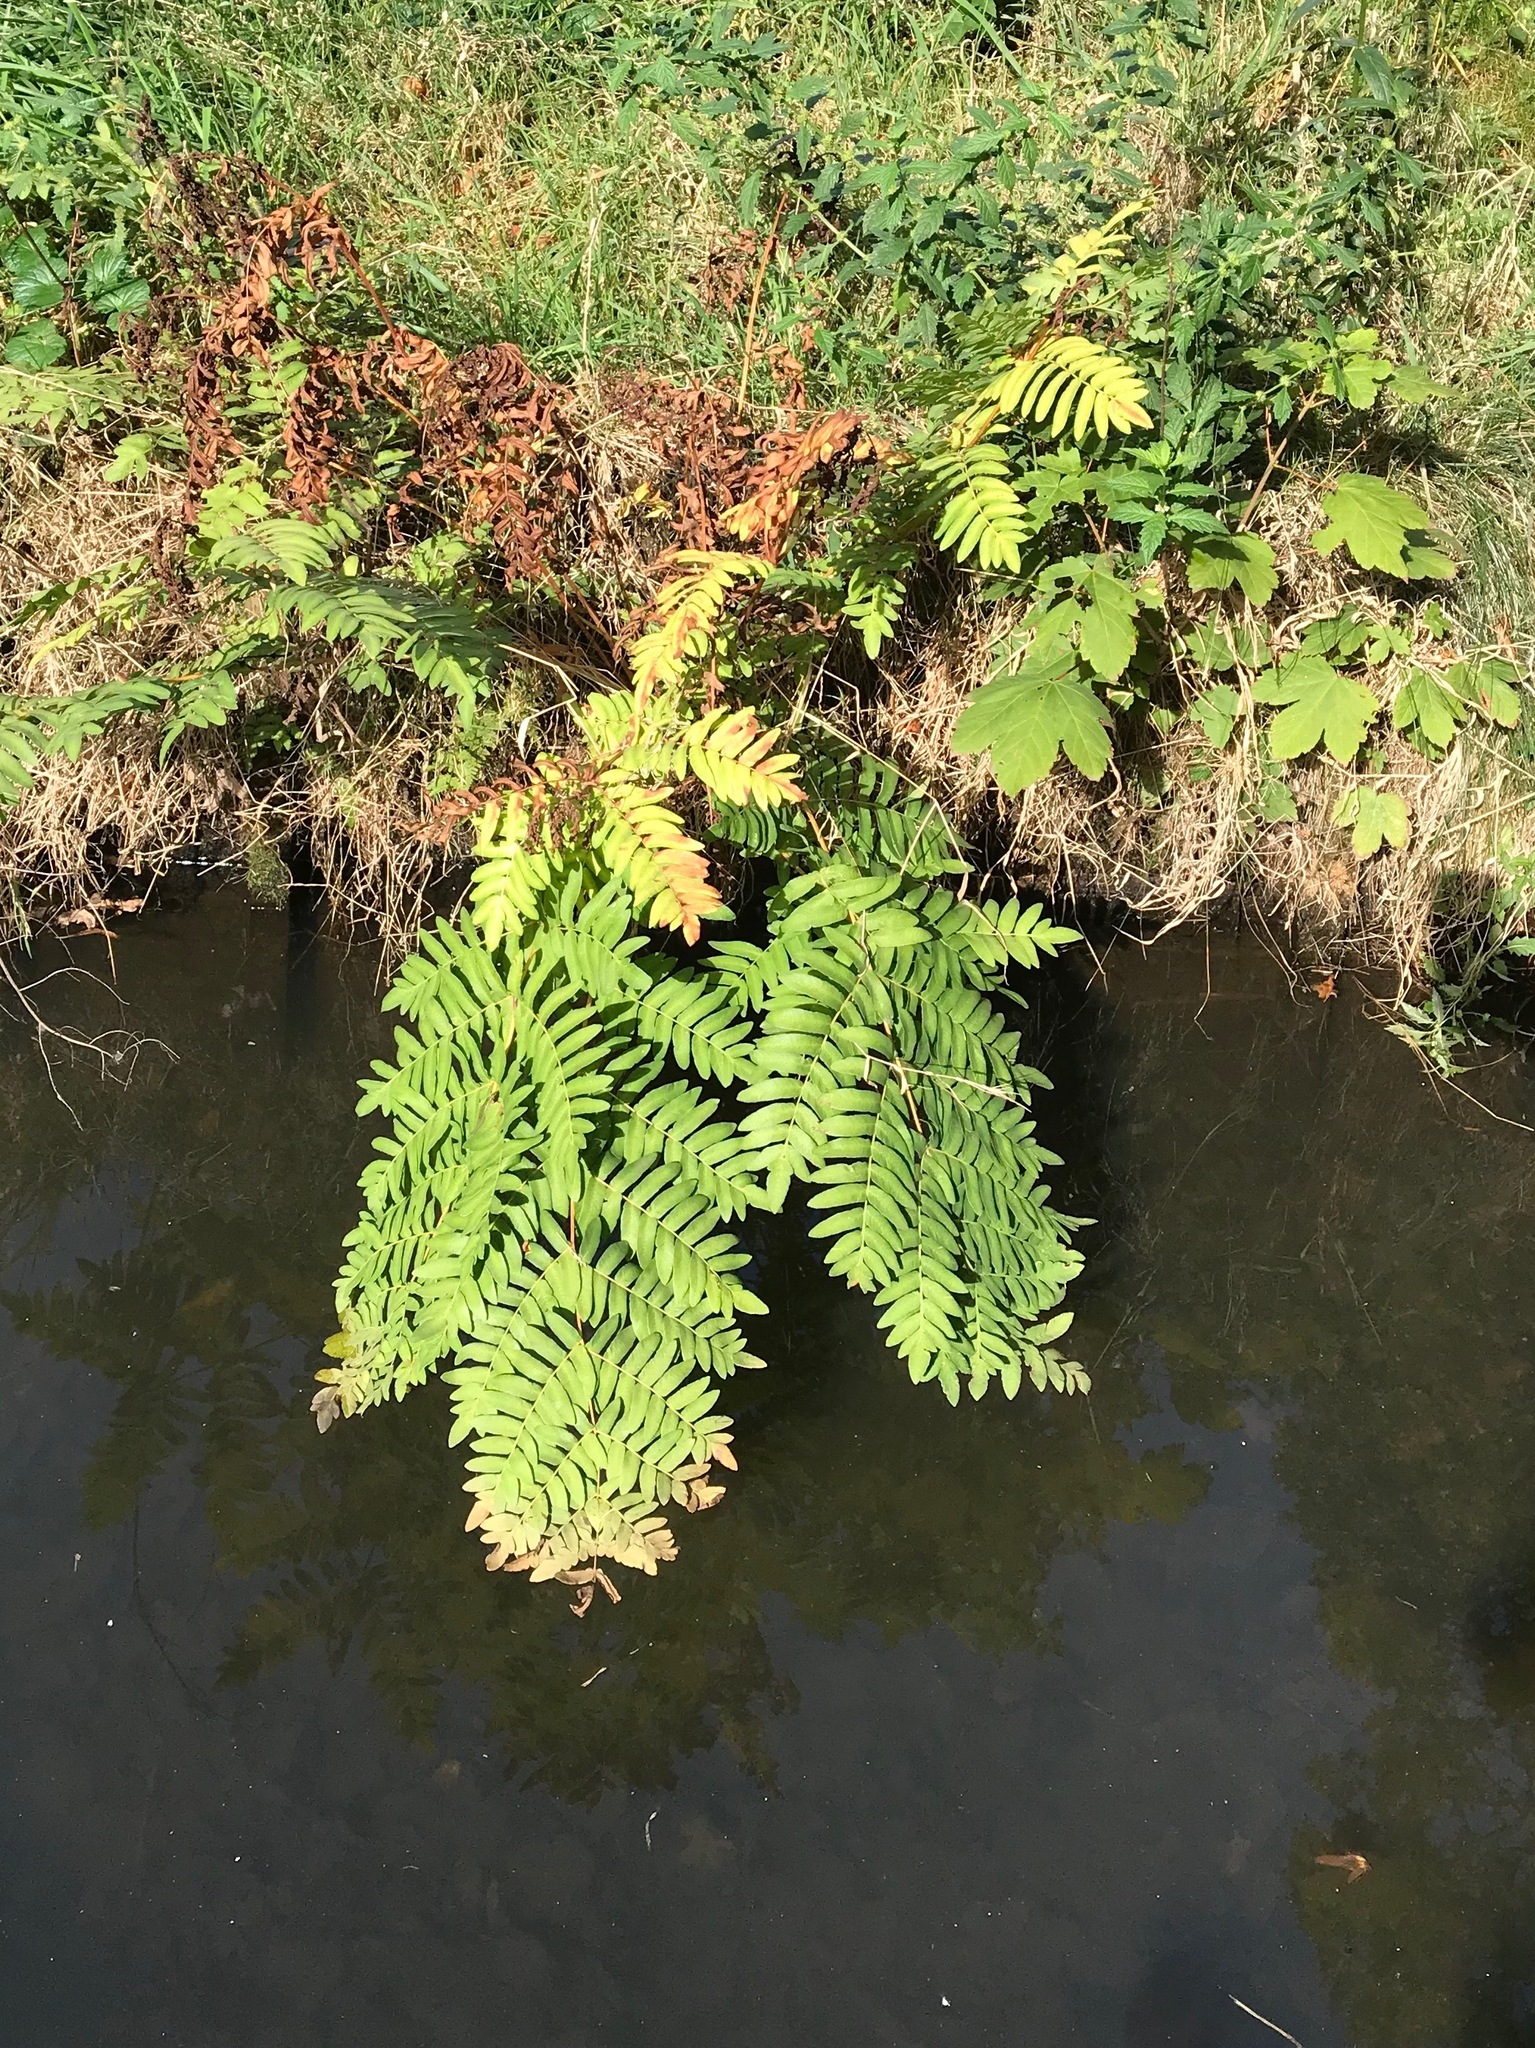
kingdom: Plantae
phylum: Tracheophyta
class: Polypodiopsida
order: Osmundales
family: Osmundaceae
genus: Osmunda
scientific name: Osmunda regalis
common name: Royal fern
